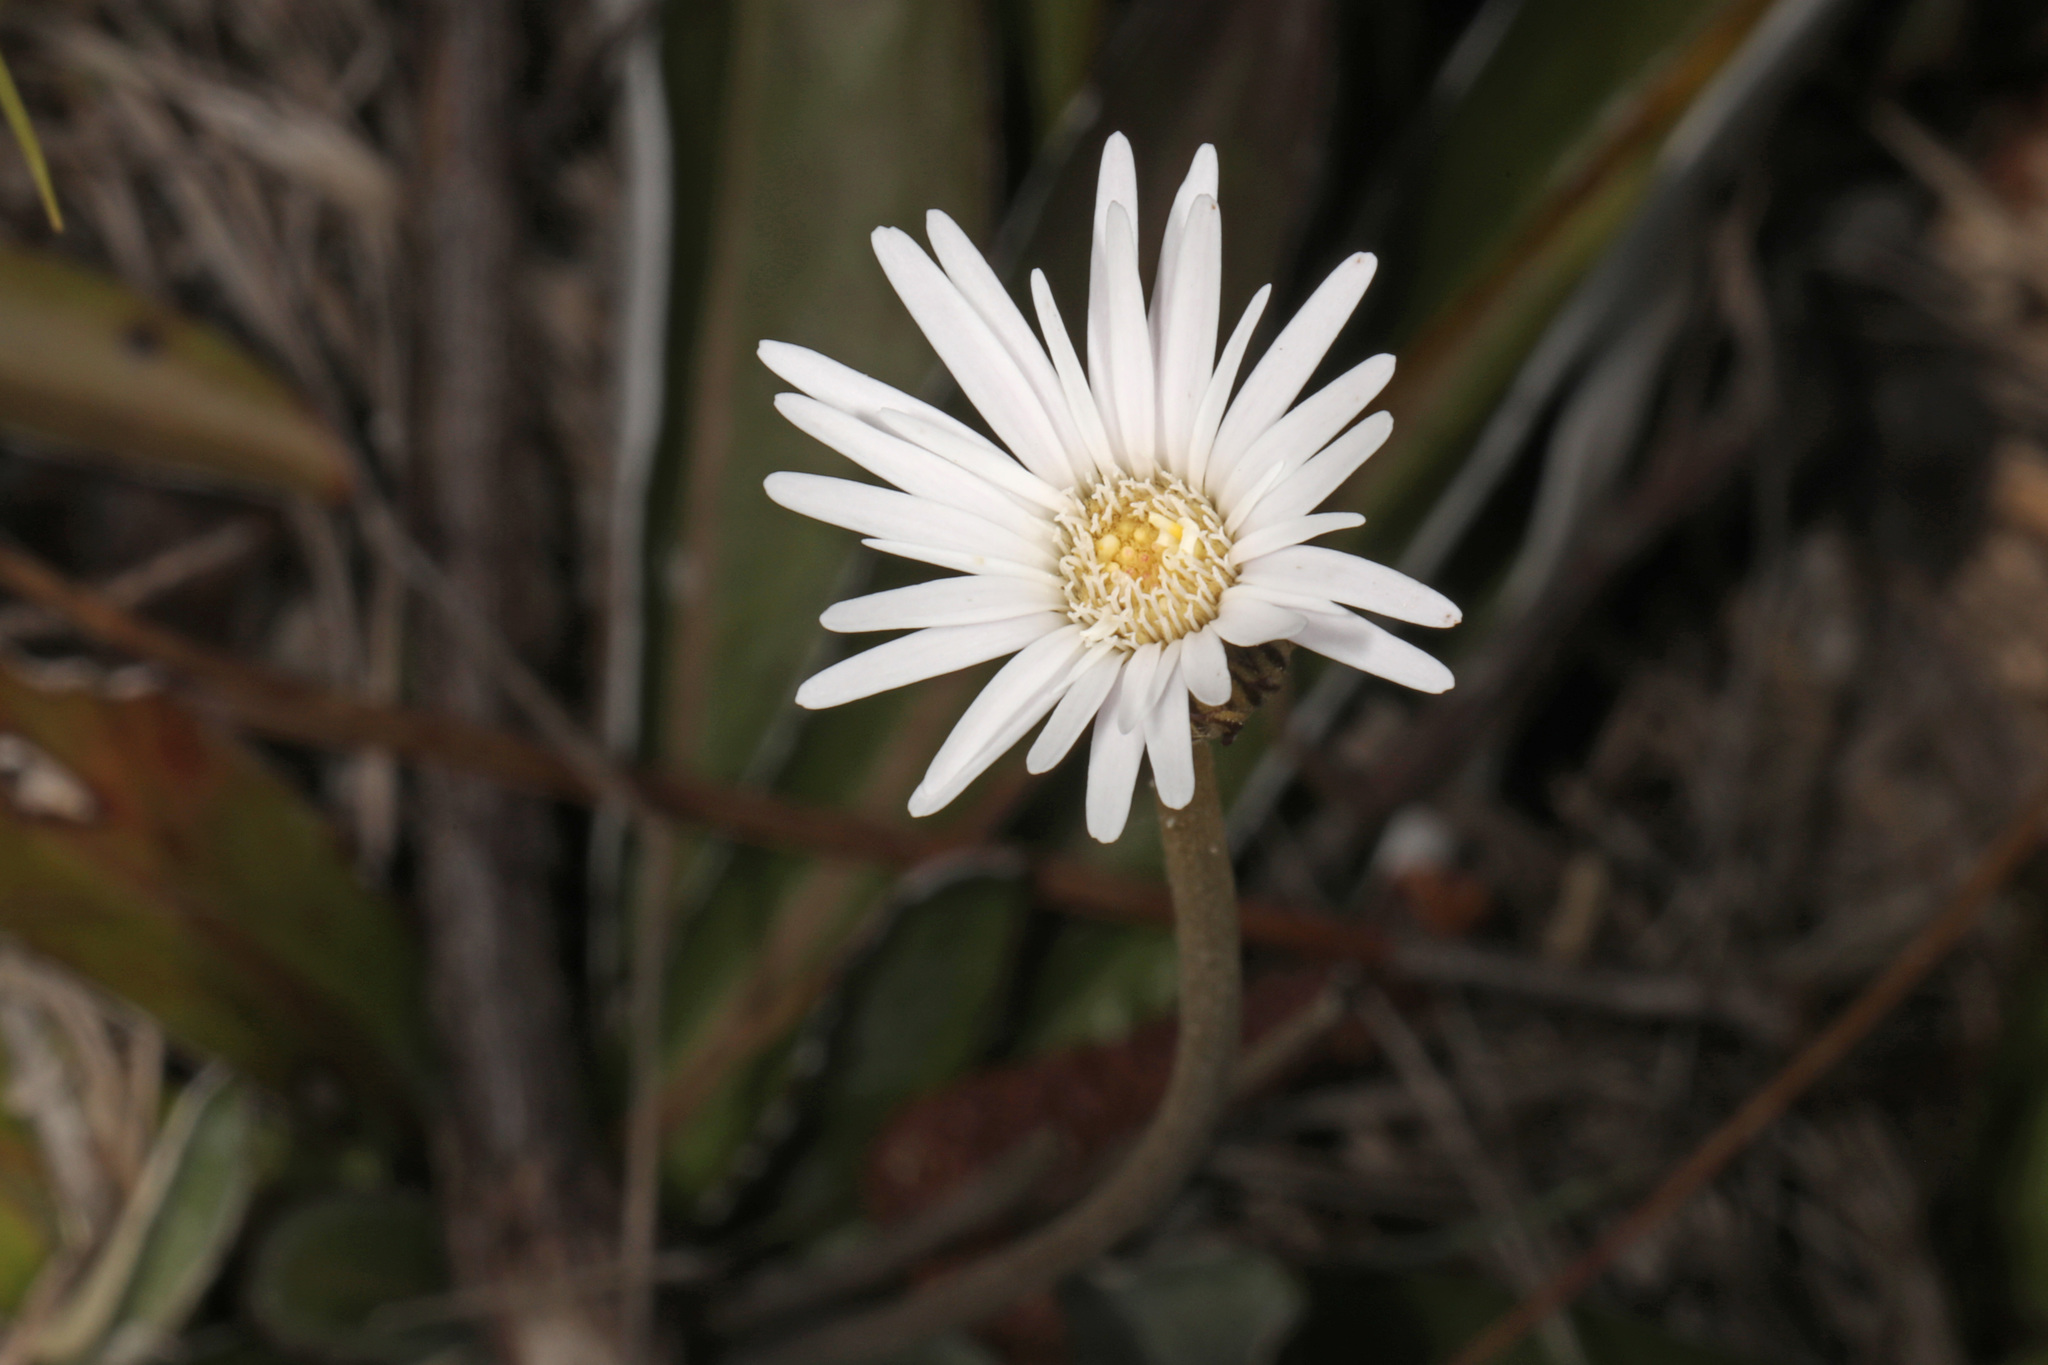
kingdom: Plantae
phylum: Tracheophyta
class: Magnoliopsida
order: Asterales
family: Asteraceae
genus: Chaptalia
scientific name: Chaptalia tomentosa
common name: Woolly sunbonnet
